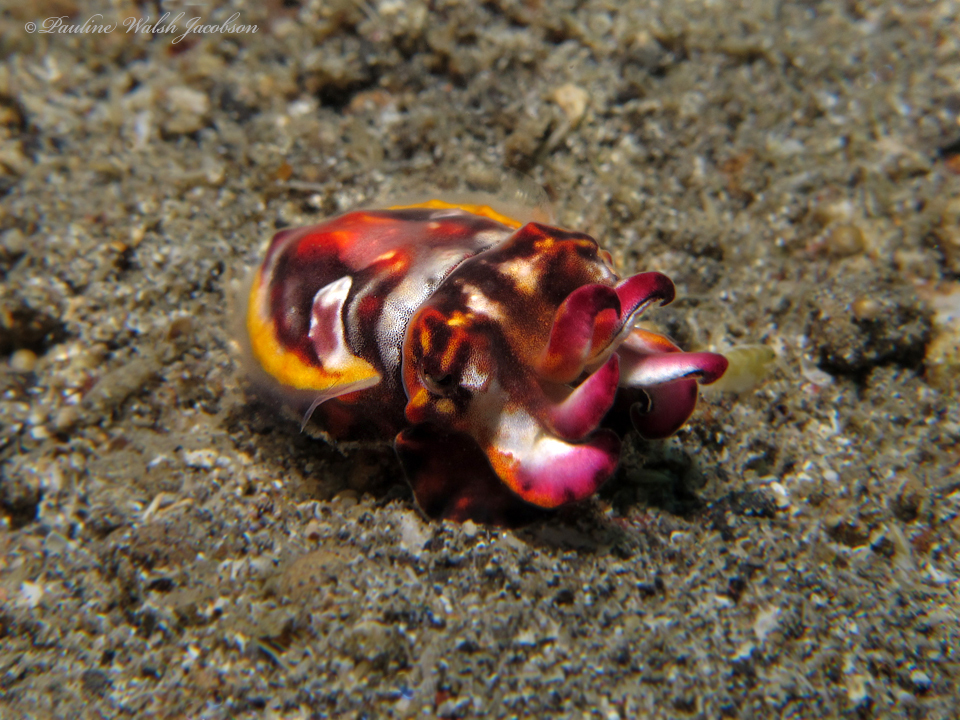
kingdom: Animalia
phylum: Mollusca
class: Cephalopoda
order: Sepiida
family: Sepiidae
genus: Ascarosepion
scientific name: Ascarosepion pfefferi
